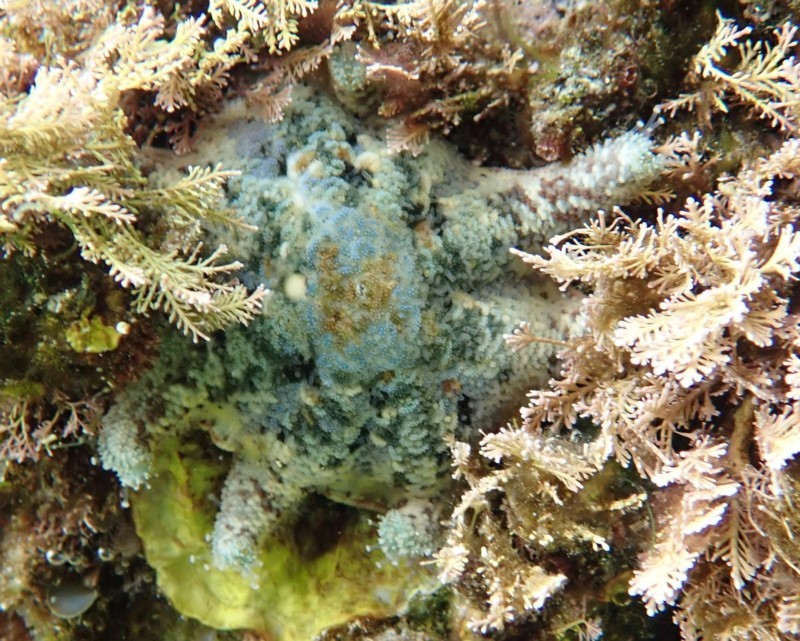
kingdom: Animalia
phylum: Echinodermata
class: Asteroidea
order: Valvatida
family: Asterinidae
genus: Meridiastra
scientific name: Meridiastra calcar
